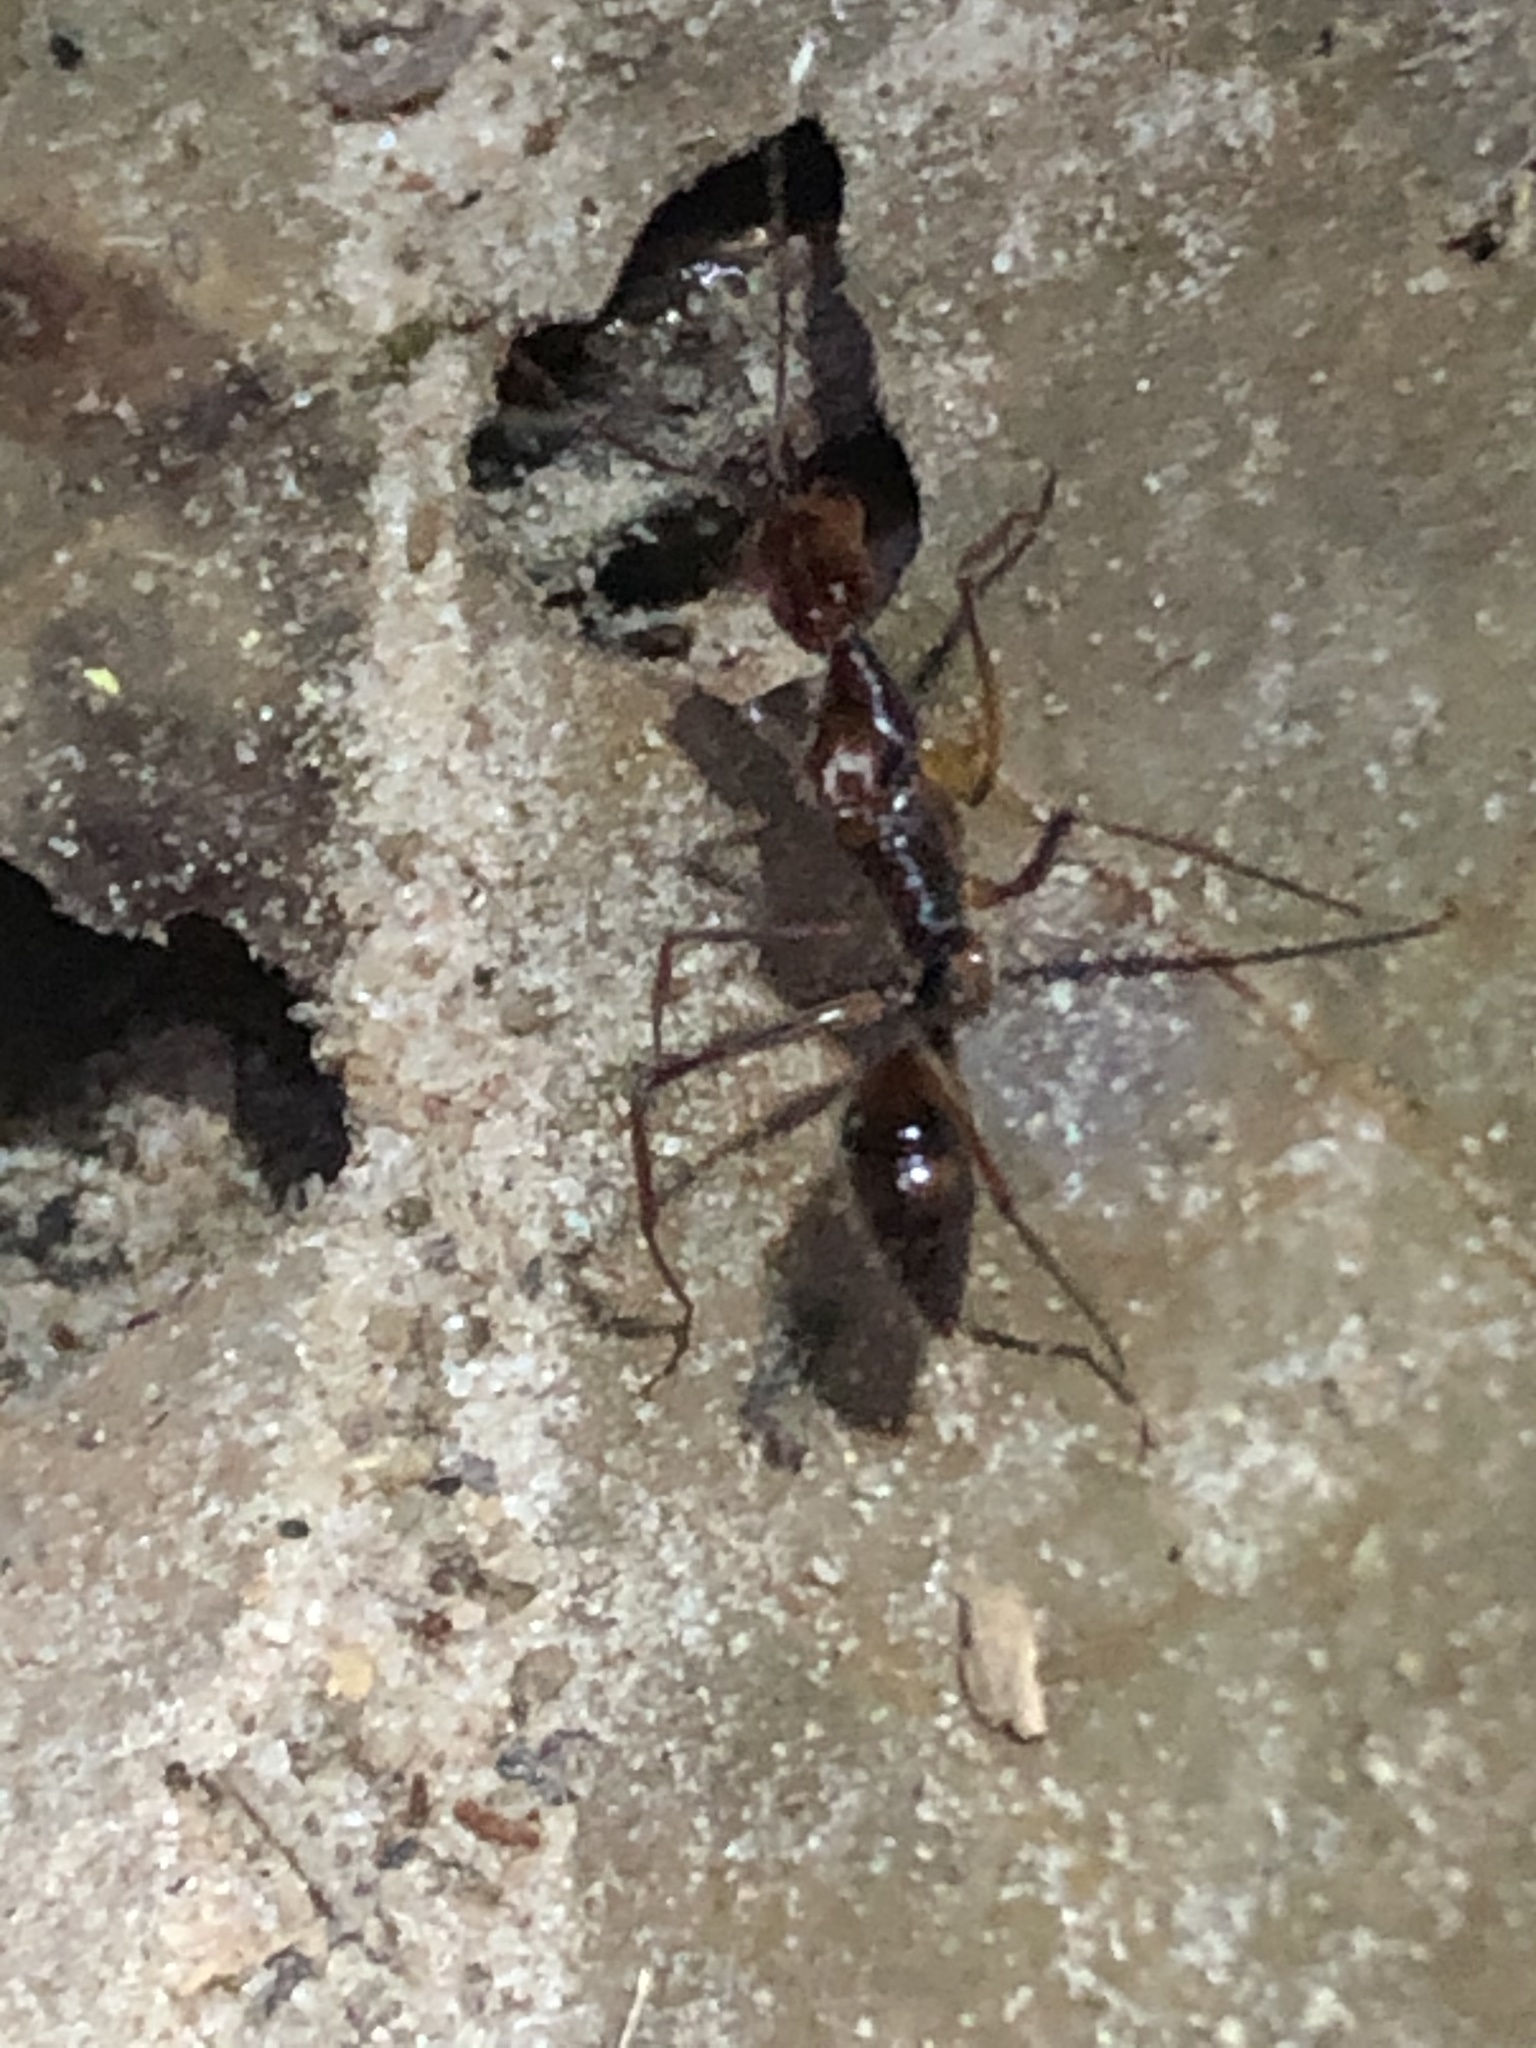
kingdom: Animalia
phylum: Arthropoda
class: Insecta
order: Hymenoptera
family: Formicidae
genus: Odontomachus
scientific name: Odontomachus hastatus
